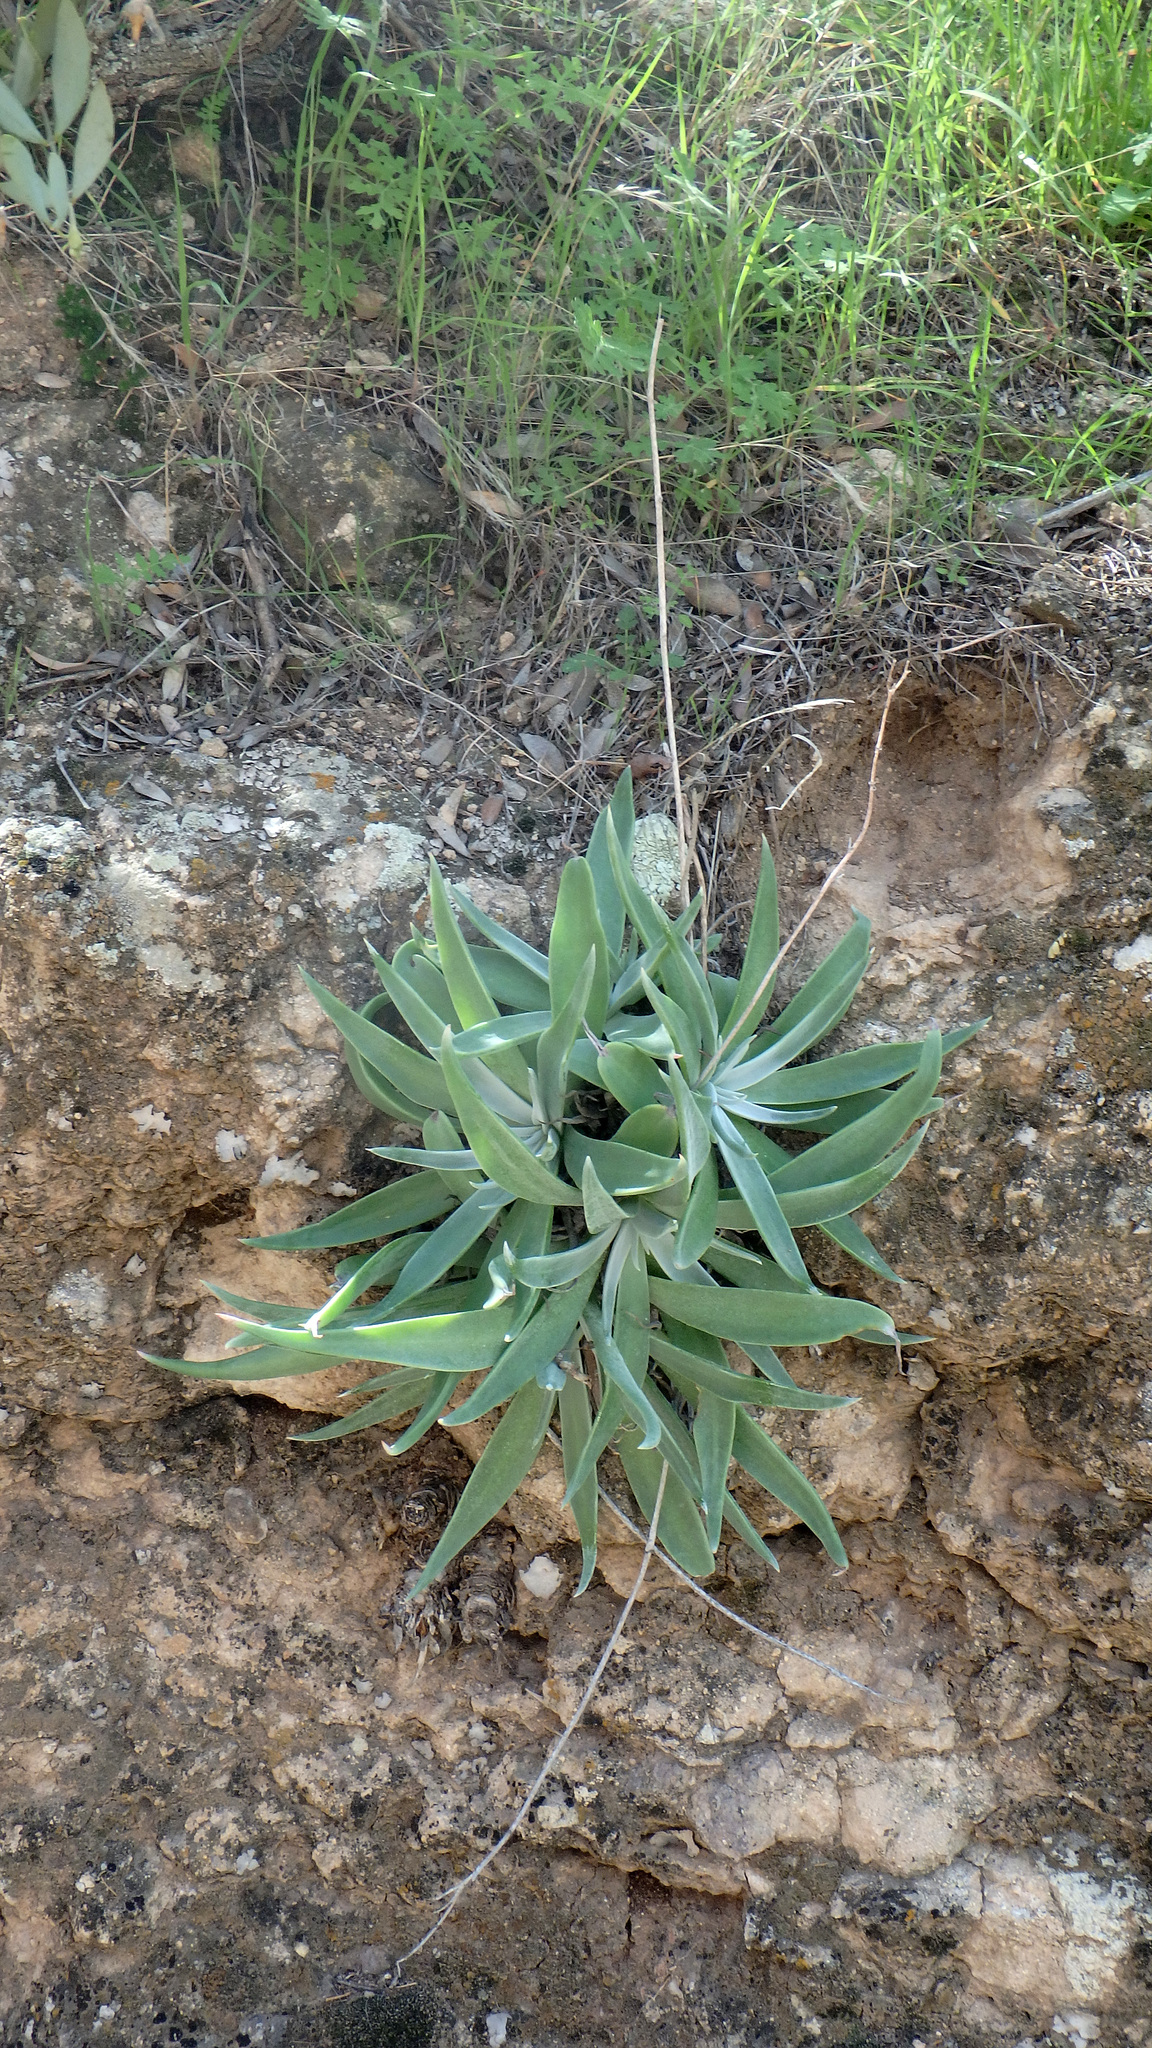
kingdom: Plantae
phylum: Tracheophyta
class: Magnoliopsida
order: Saxifragales
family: Crassulaceae
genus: Dudleya
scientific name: Dudleya collomiae
